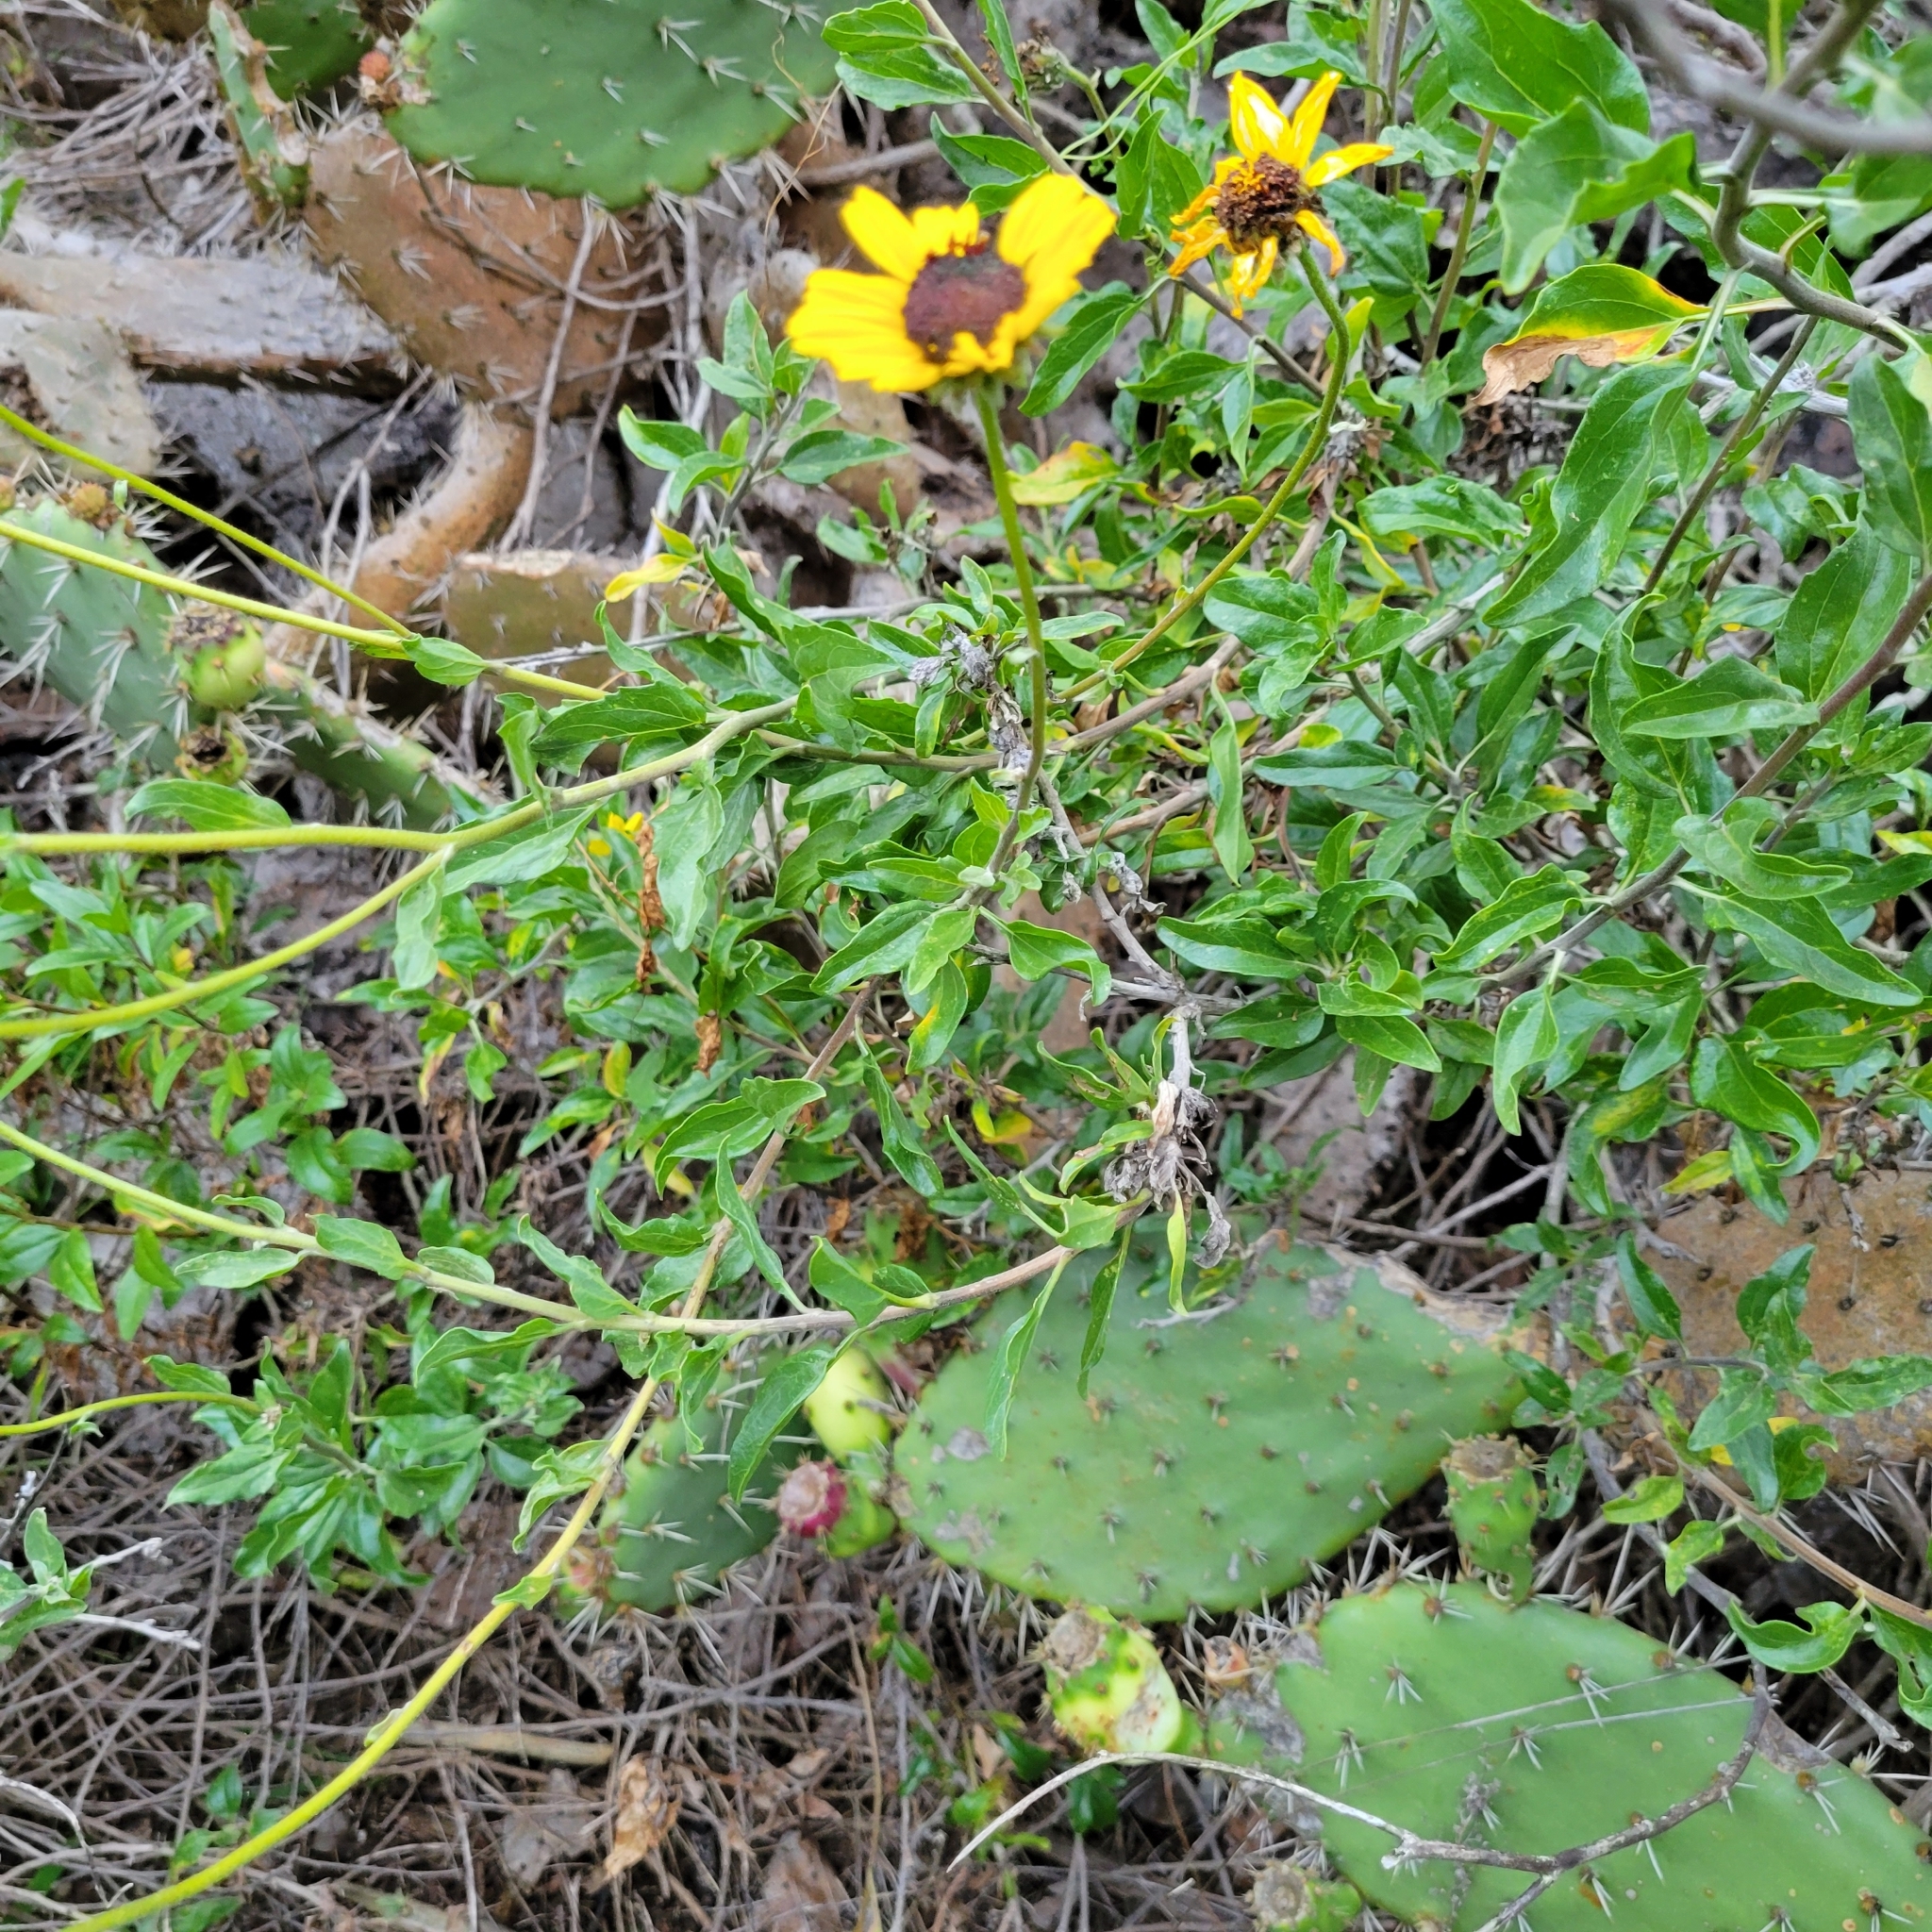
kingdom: Plantae
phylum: Tracheophyta
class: Magnoliopsida
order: Asterales
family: Asteraceae
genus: Encelia
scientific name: Encelia californica
